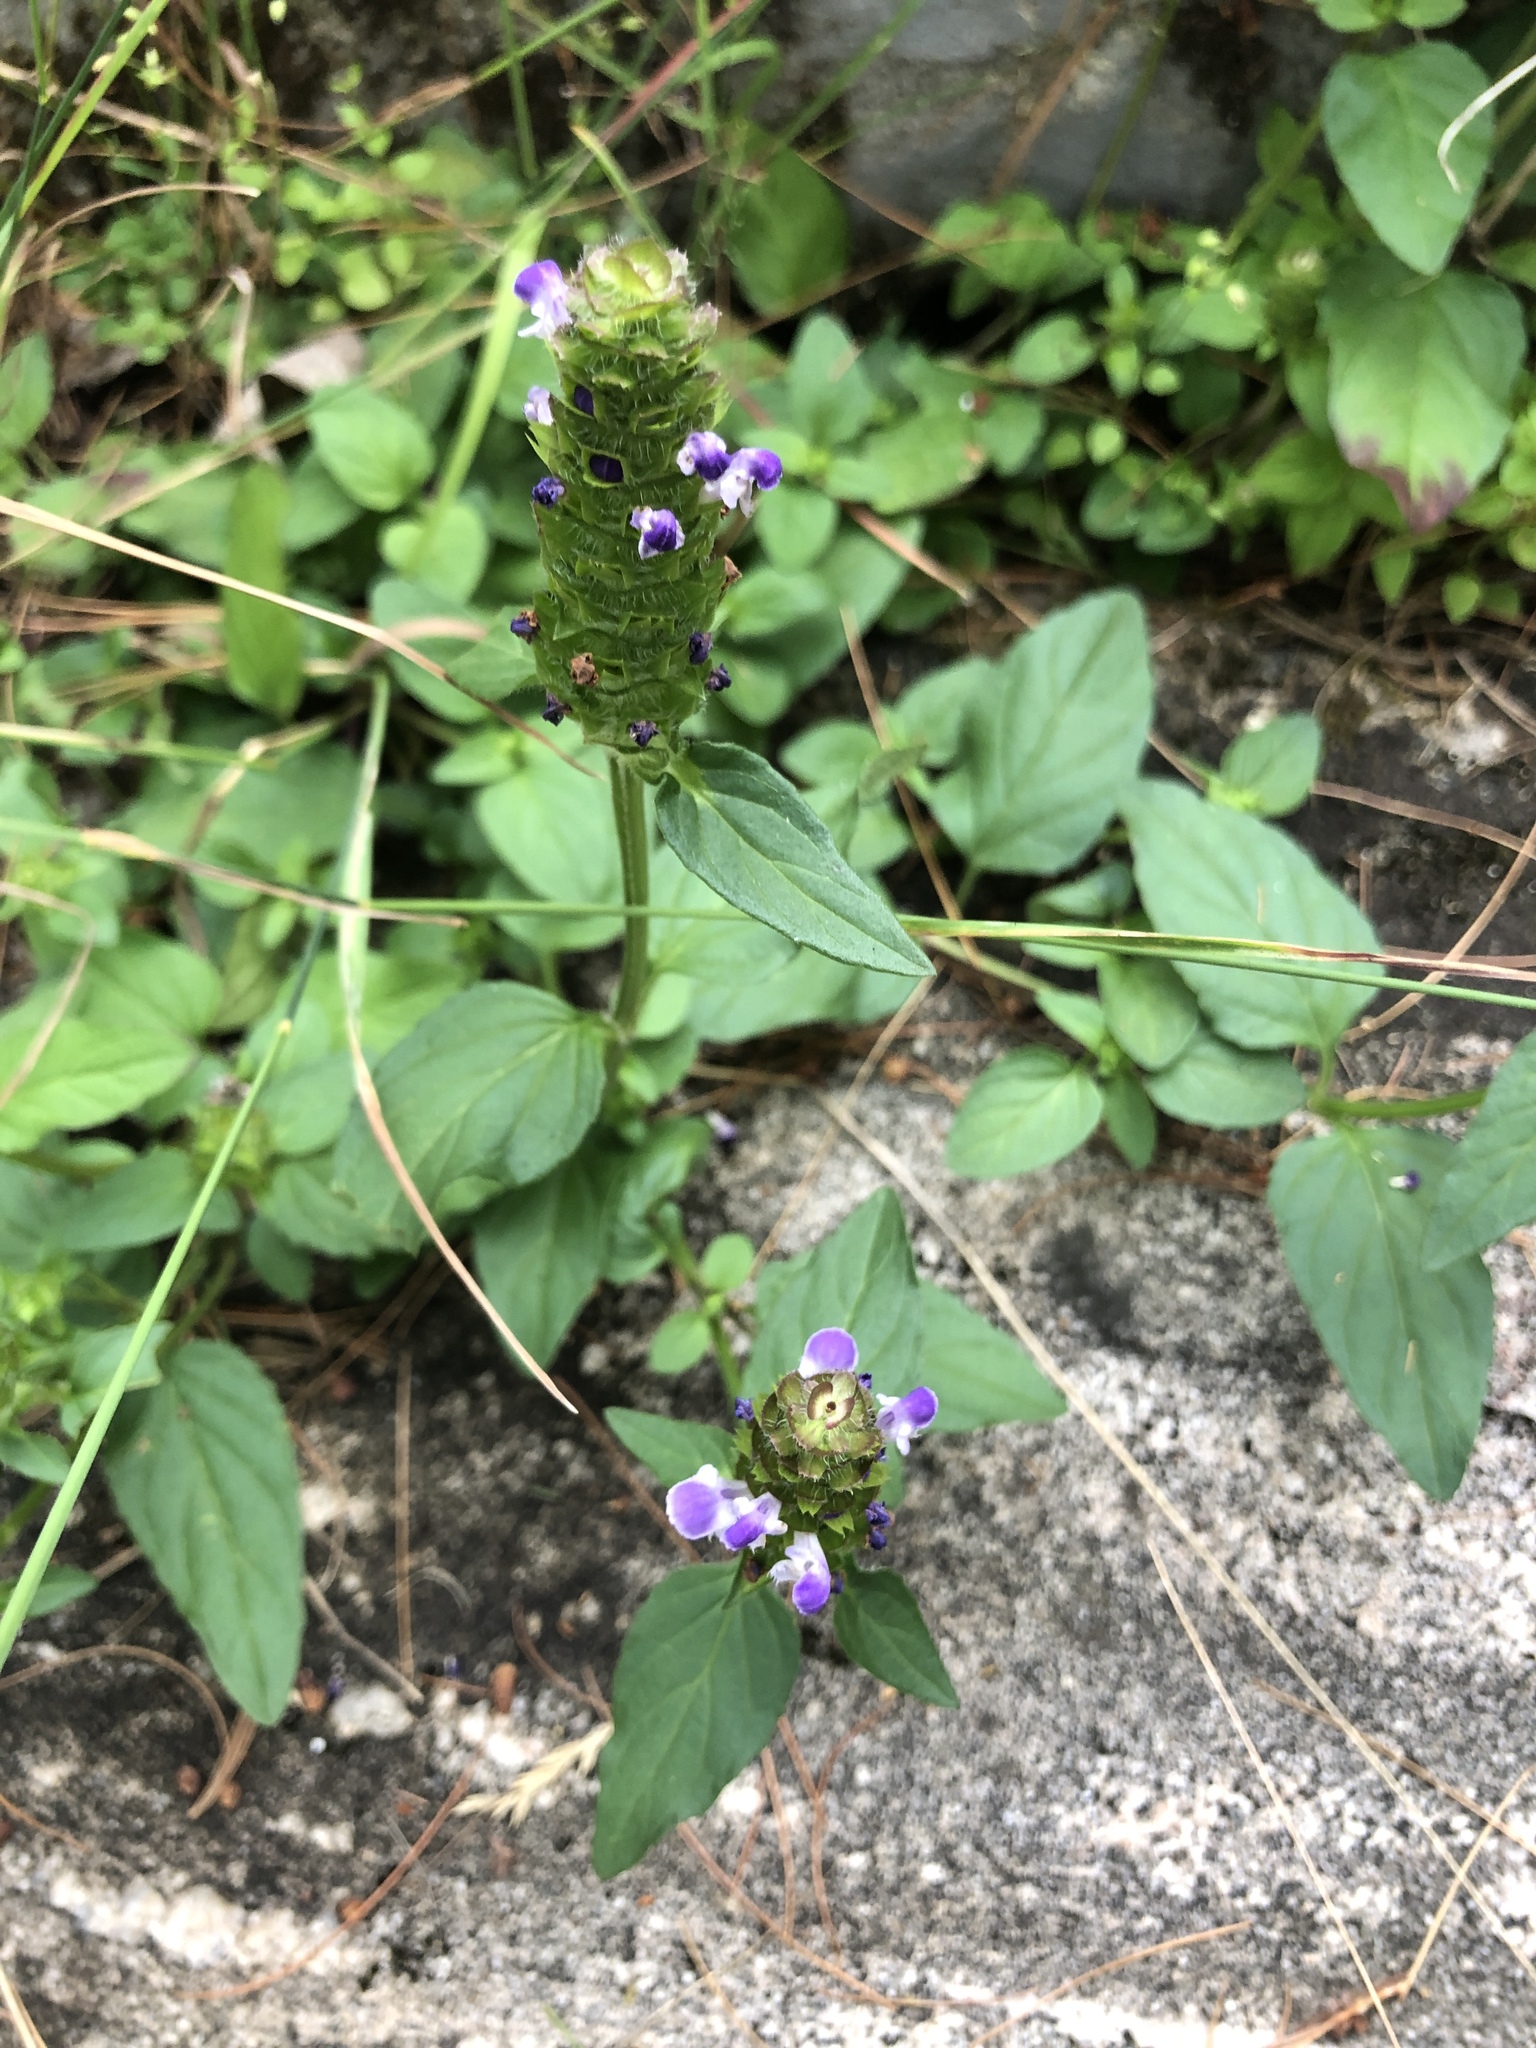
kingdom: Plantae
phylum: Tracheophyta
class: Magnoliopsida
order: Lamiales
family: Lamiaceae
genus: Prunella
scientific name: Prunella vulgaris
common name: Heal-all
